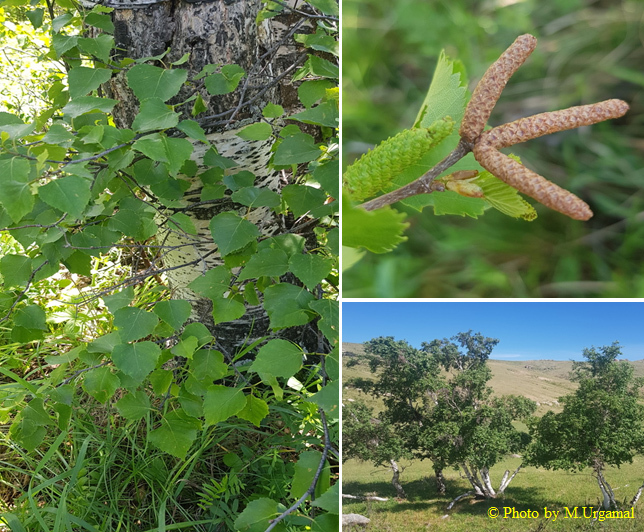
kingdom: Plantae
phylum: Tracheophyta
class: Magnoliopsida
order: Fagales
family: Betulaceae
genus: Betula
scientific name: Betula pendula
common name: Silver birch
